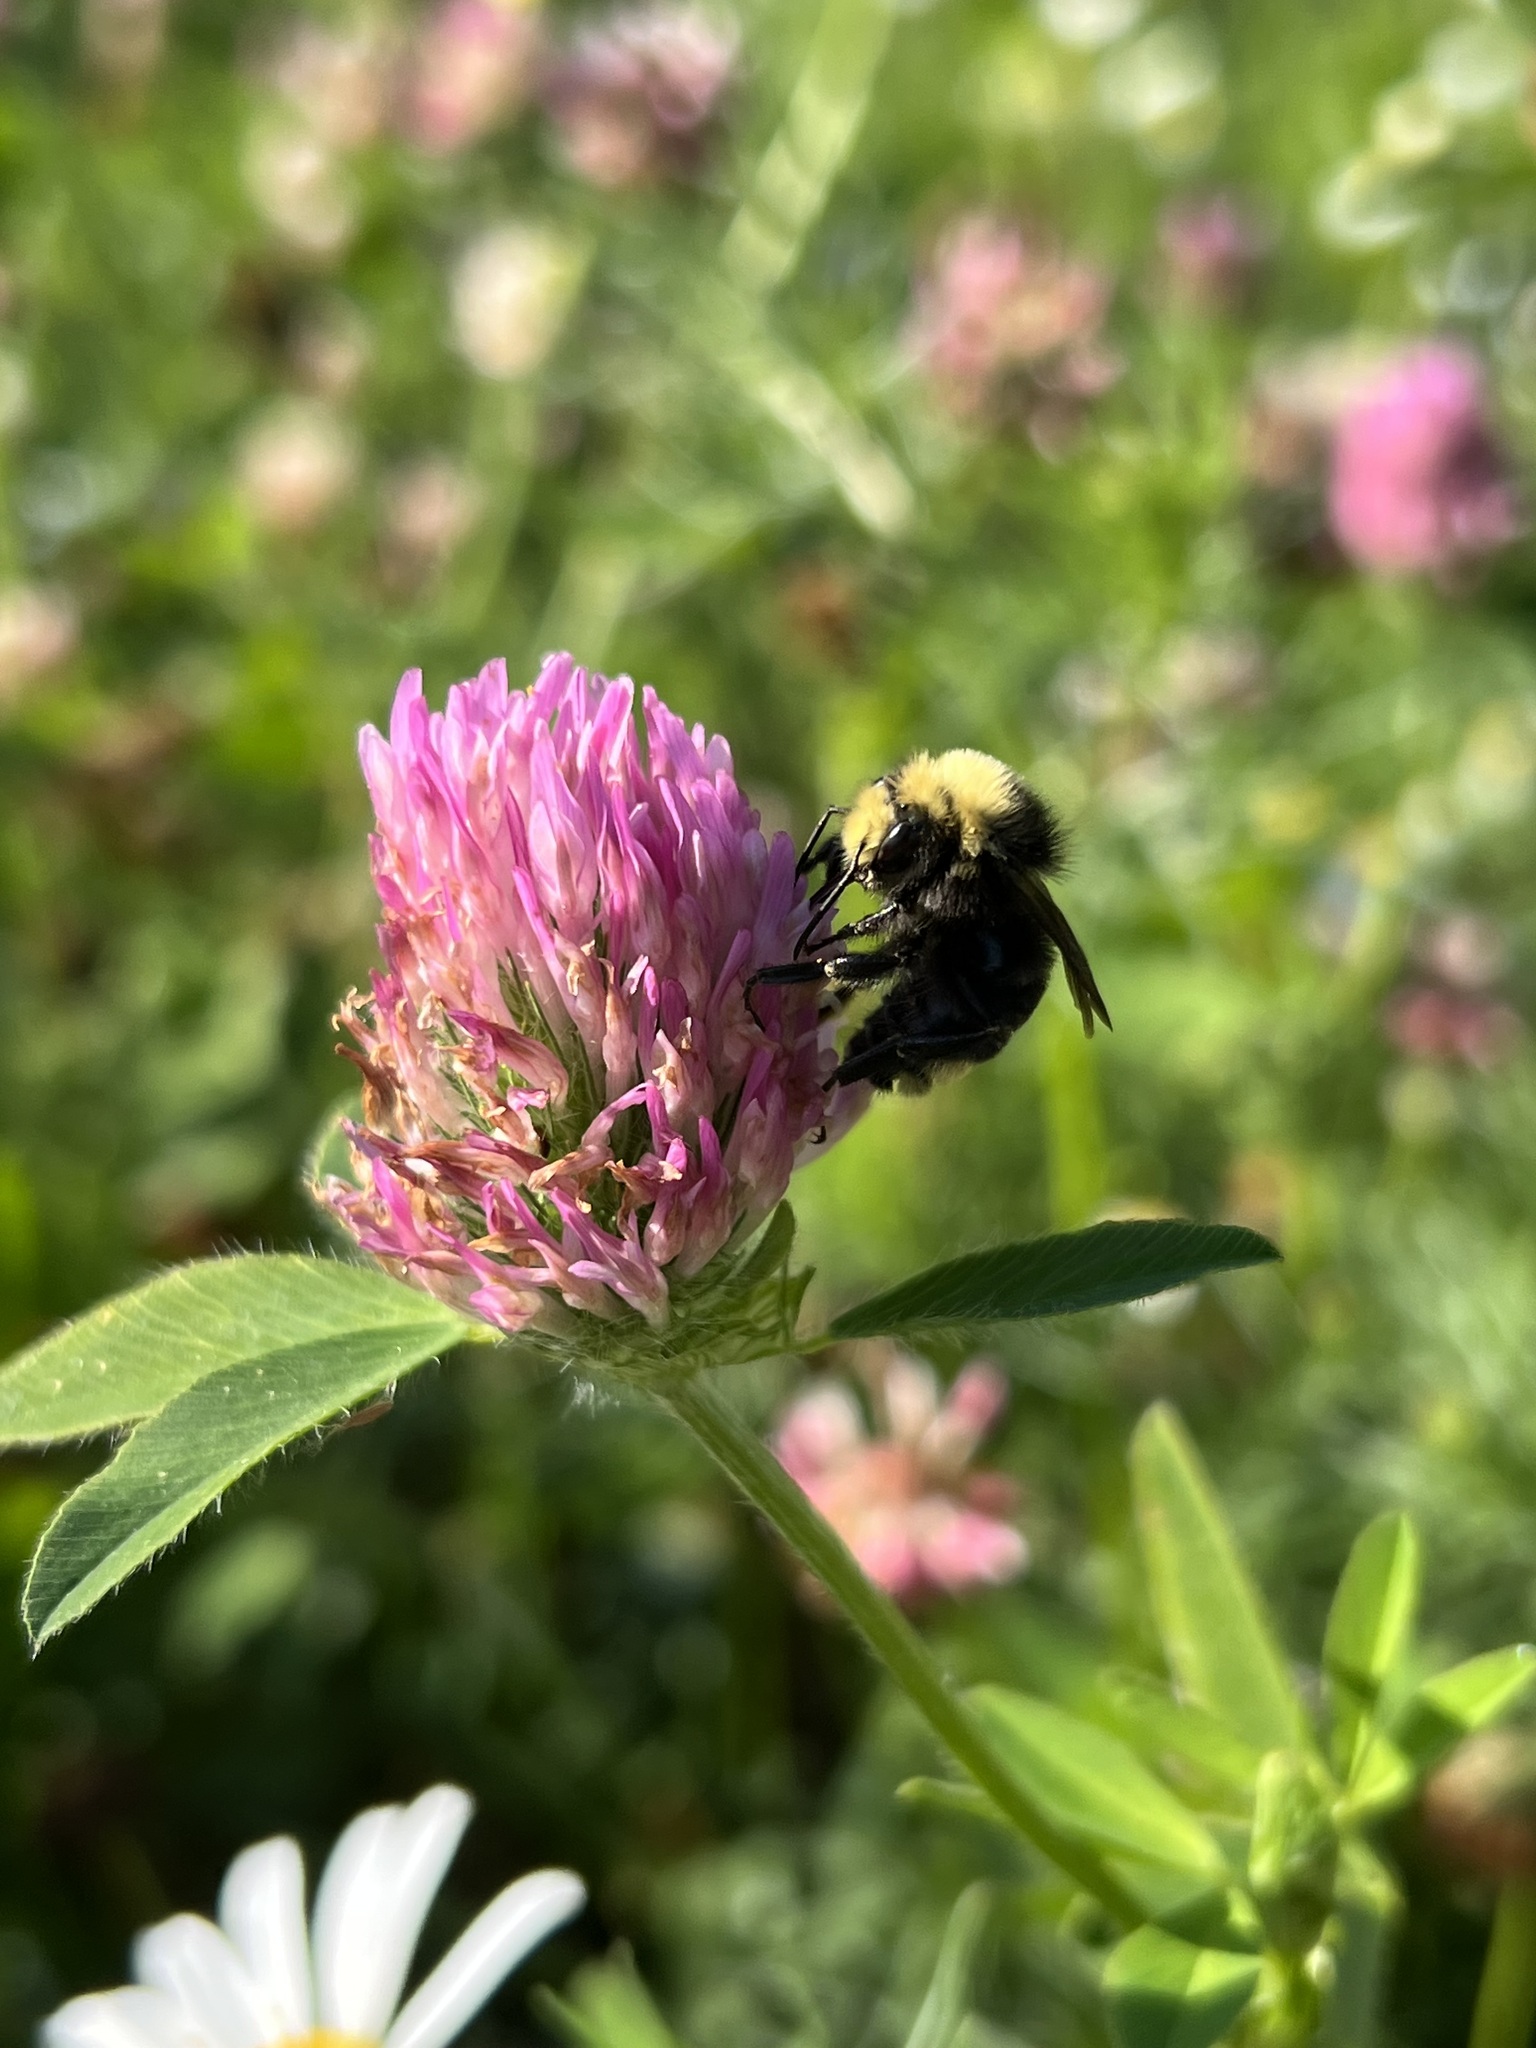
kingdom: Animalia
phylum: Arthropoda
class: Insecta
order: Hymenoptera
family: Apidae
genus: Bombus
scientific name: Bombus vosnesenskii
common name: Vosnesensky bumble bee
